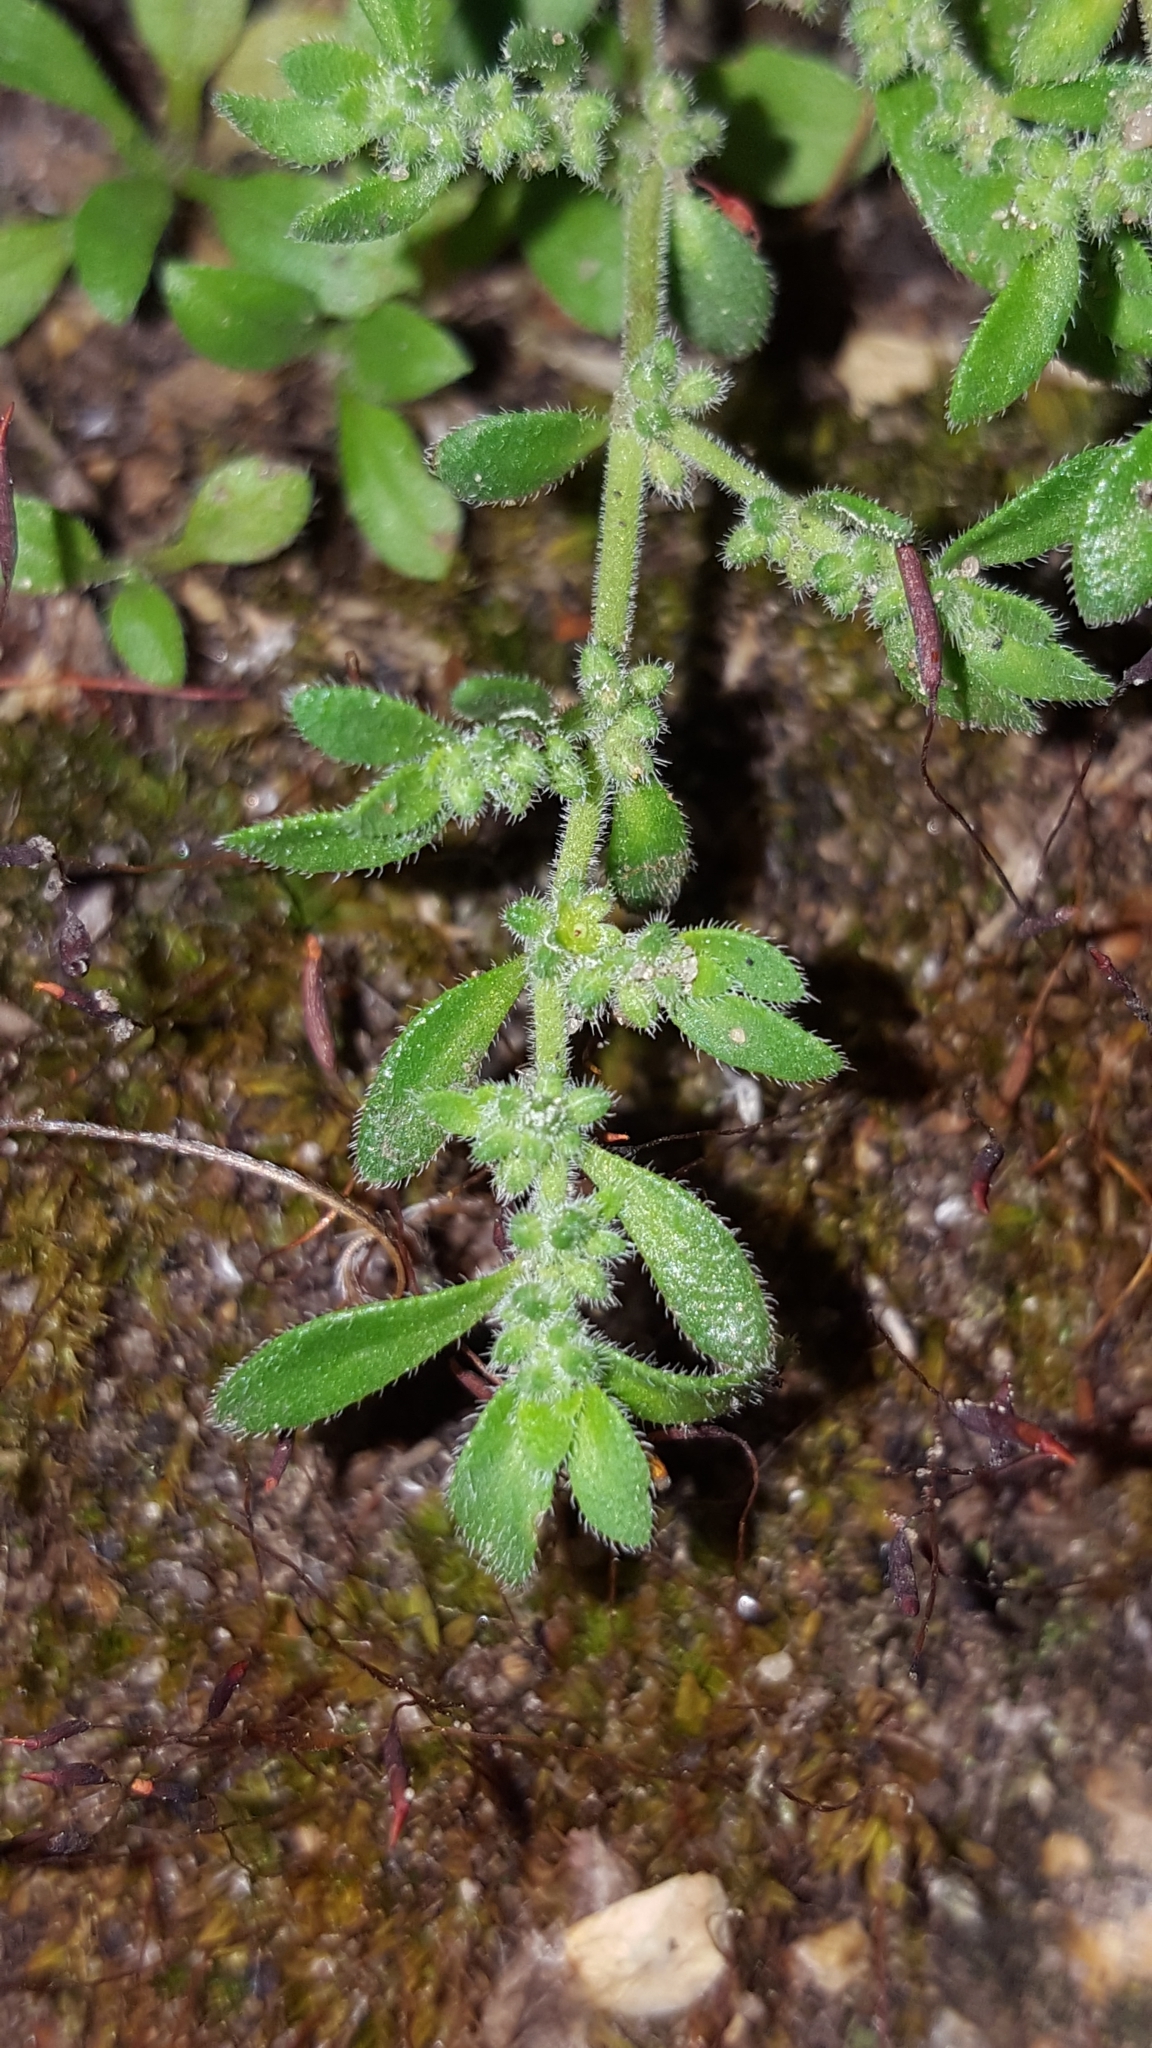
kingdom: Plantae
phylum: Tracheophyta
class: Magnoliopsida
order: Caryophyllales
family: Caryophyllaceae
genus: Herniaria
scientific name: Herniaria hirsuta
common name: Hairy rupturewort
